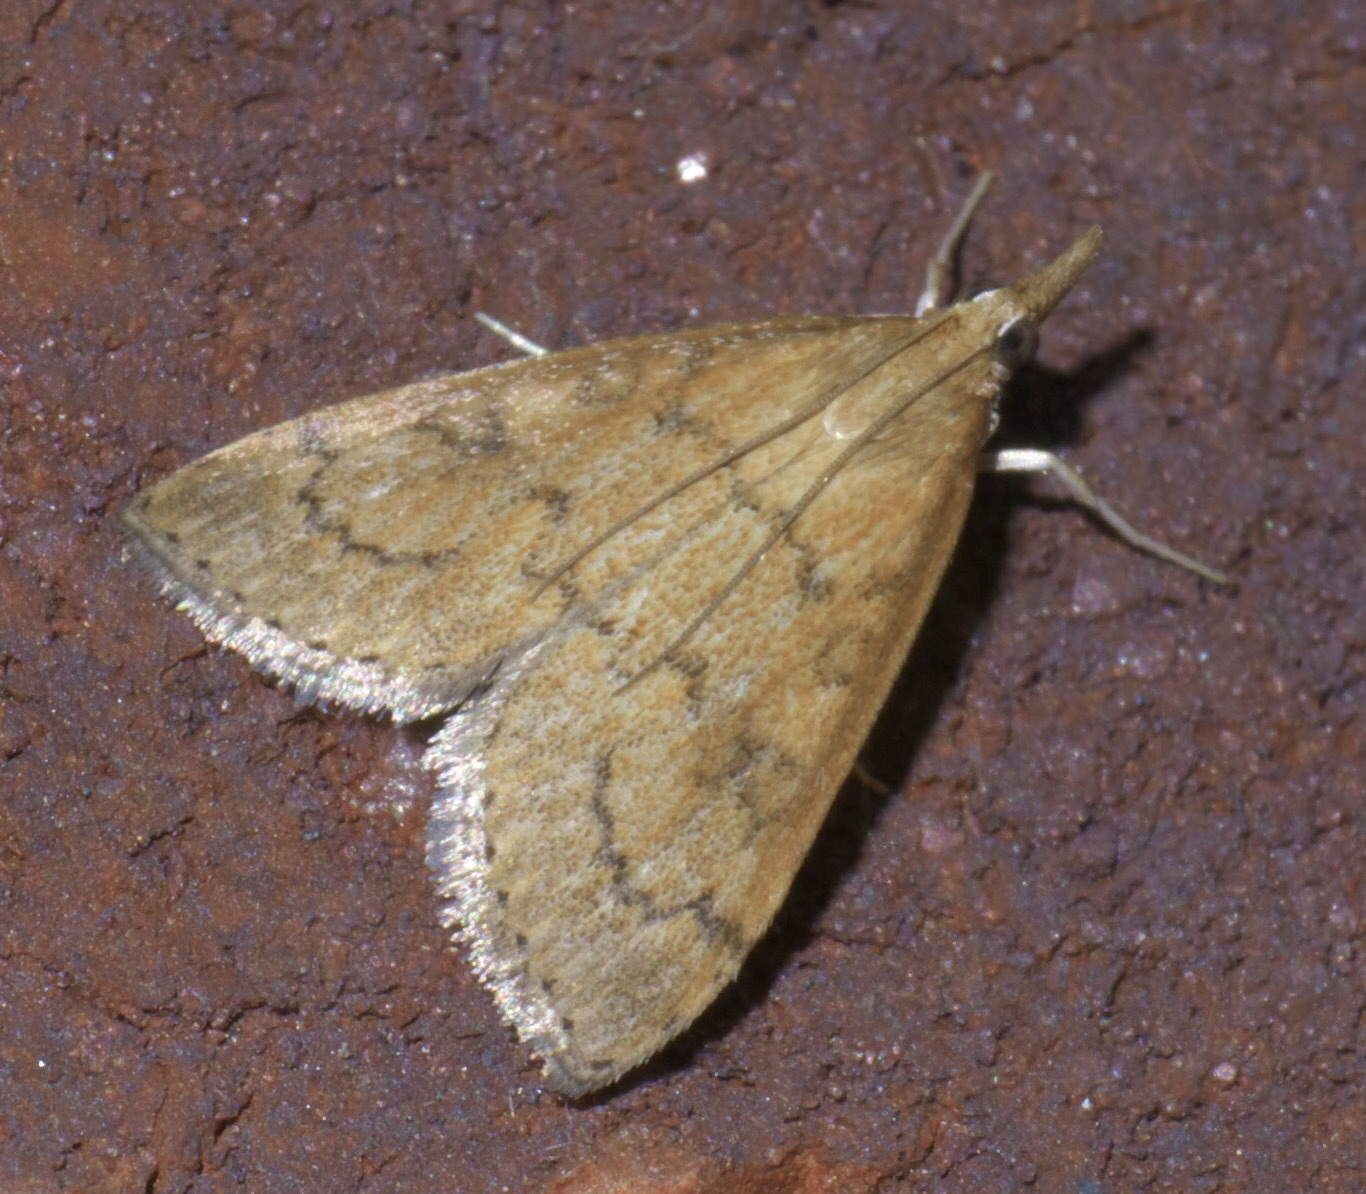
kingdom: Animalia
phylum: Arthropoda
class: Insecta
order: Lepidoptera
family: Crambidae
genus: Udea
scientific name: Udea rubigalis
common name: Celery leaftier moth
